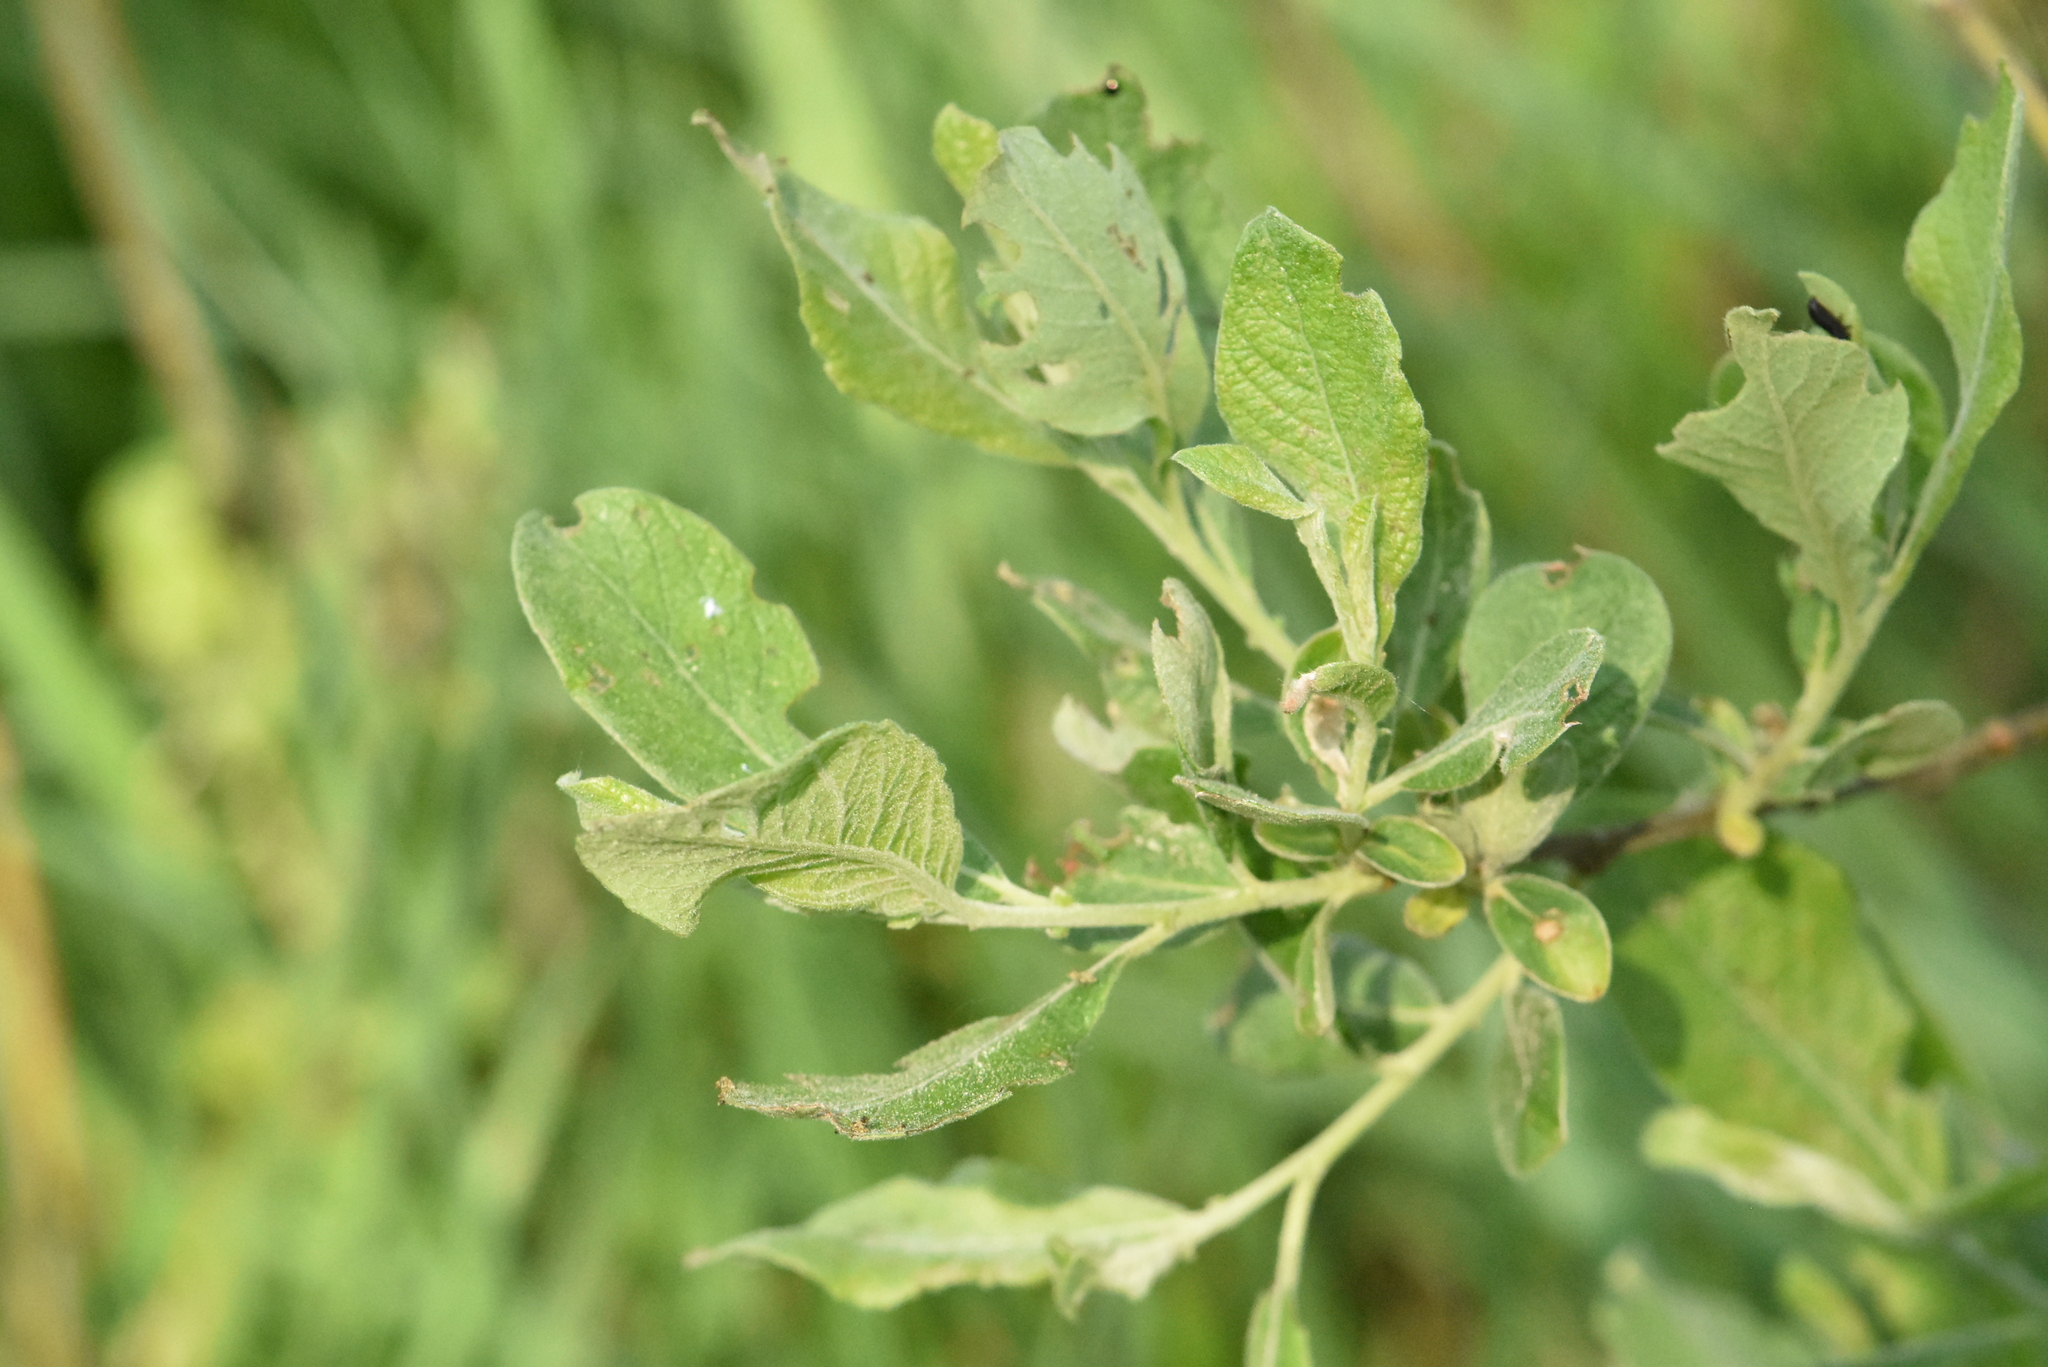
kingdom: Plantae
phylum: Tracheophyta
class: Magnoliopsida
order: Malpighiales
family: Salicaceae
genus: Salix
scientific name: Salix aurita
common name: Eared willow
